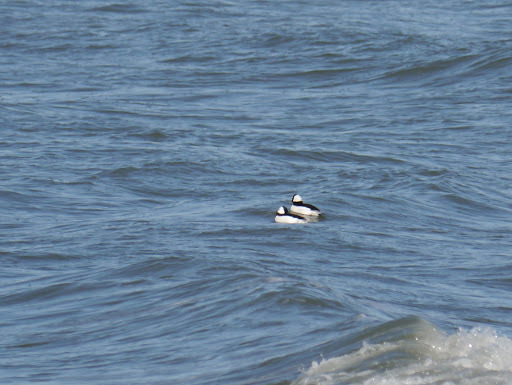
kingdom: Animalia
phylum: Chordata
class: Aves
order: Anseriformes
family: Anatidae
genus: Bucephala
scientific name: Bucephala albeola
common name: Bufflehead
